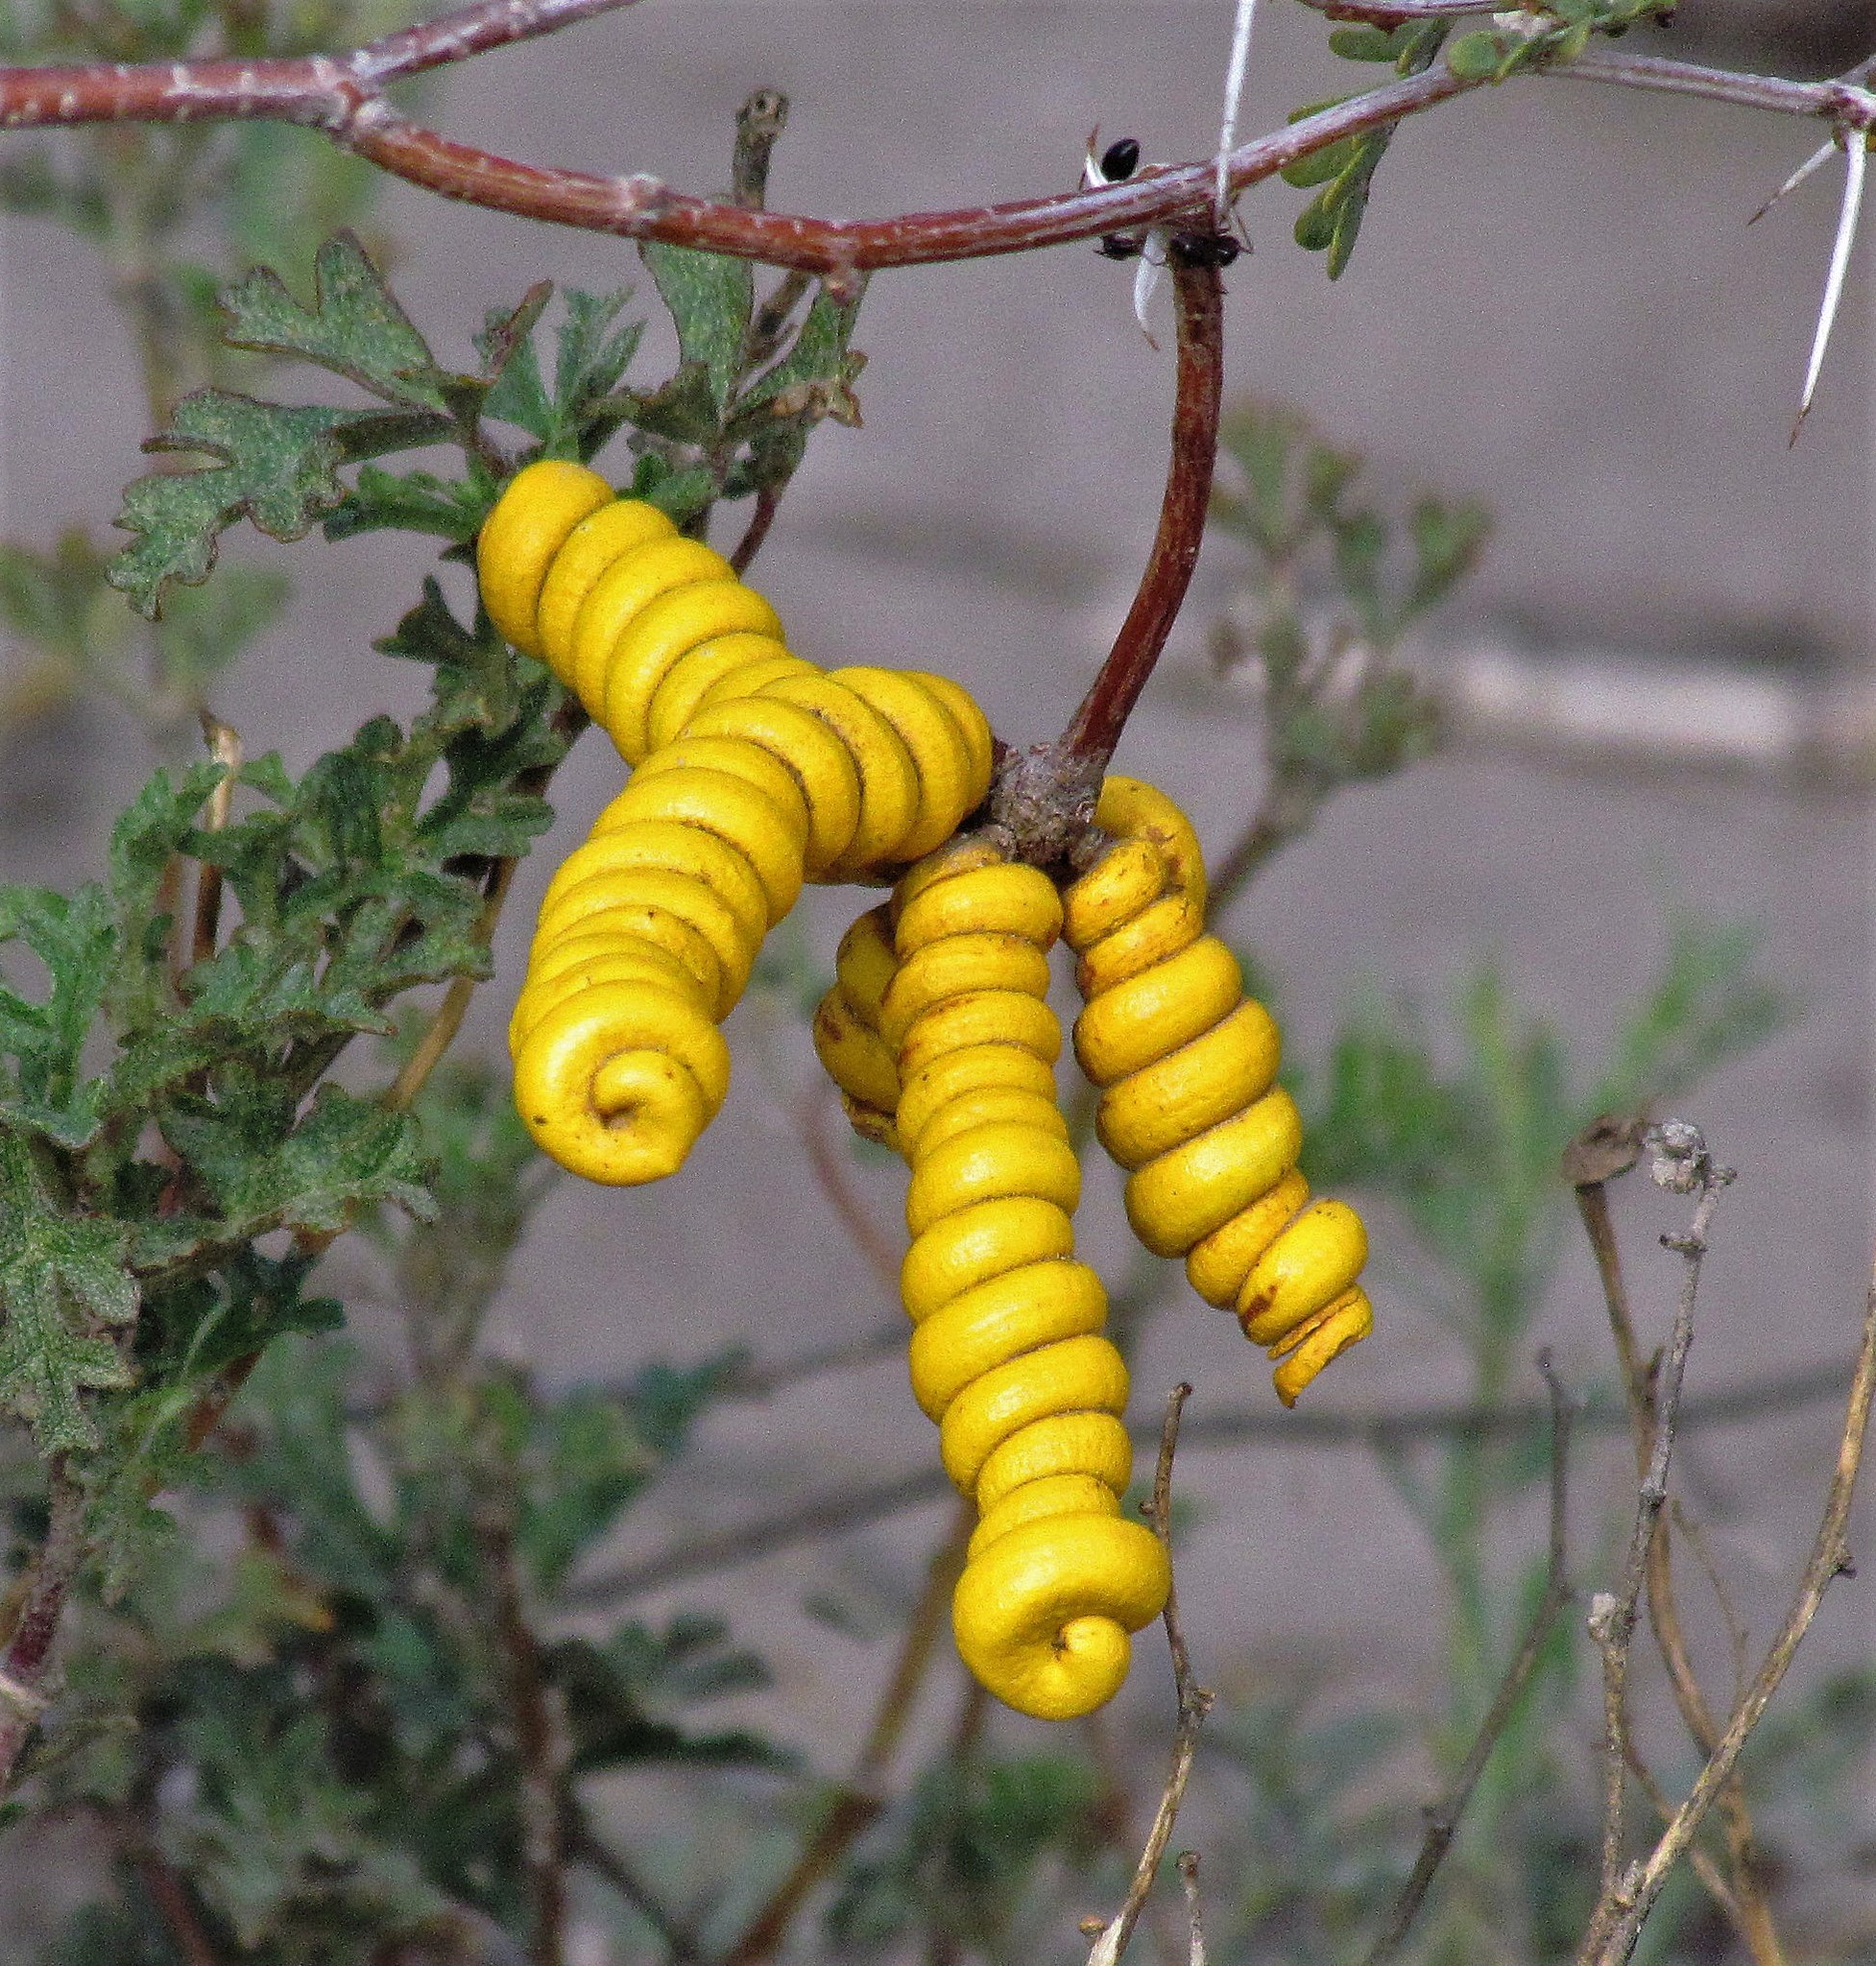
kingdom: Plantae
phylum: Tracheophyta
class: Magnoliopsida
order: Fabales
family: Fabaceae
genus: Prosopis
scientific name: Prosopis strombulifera
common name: Creeping mesquite
